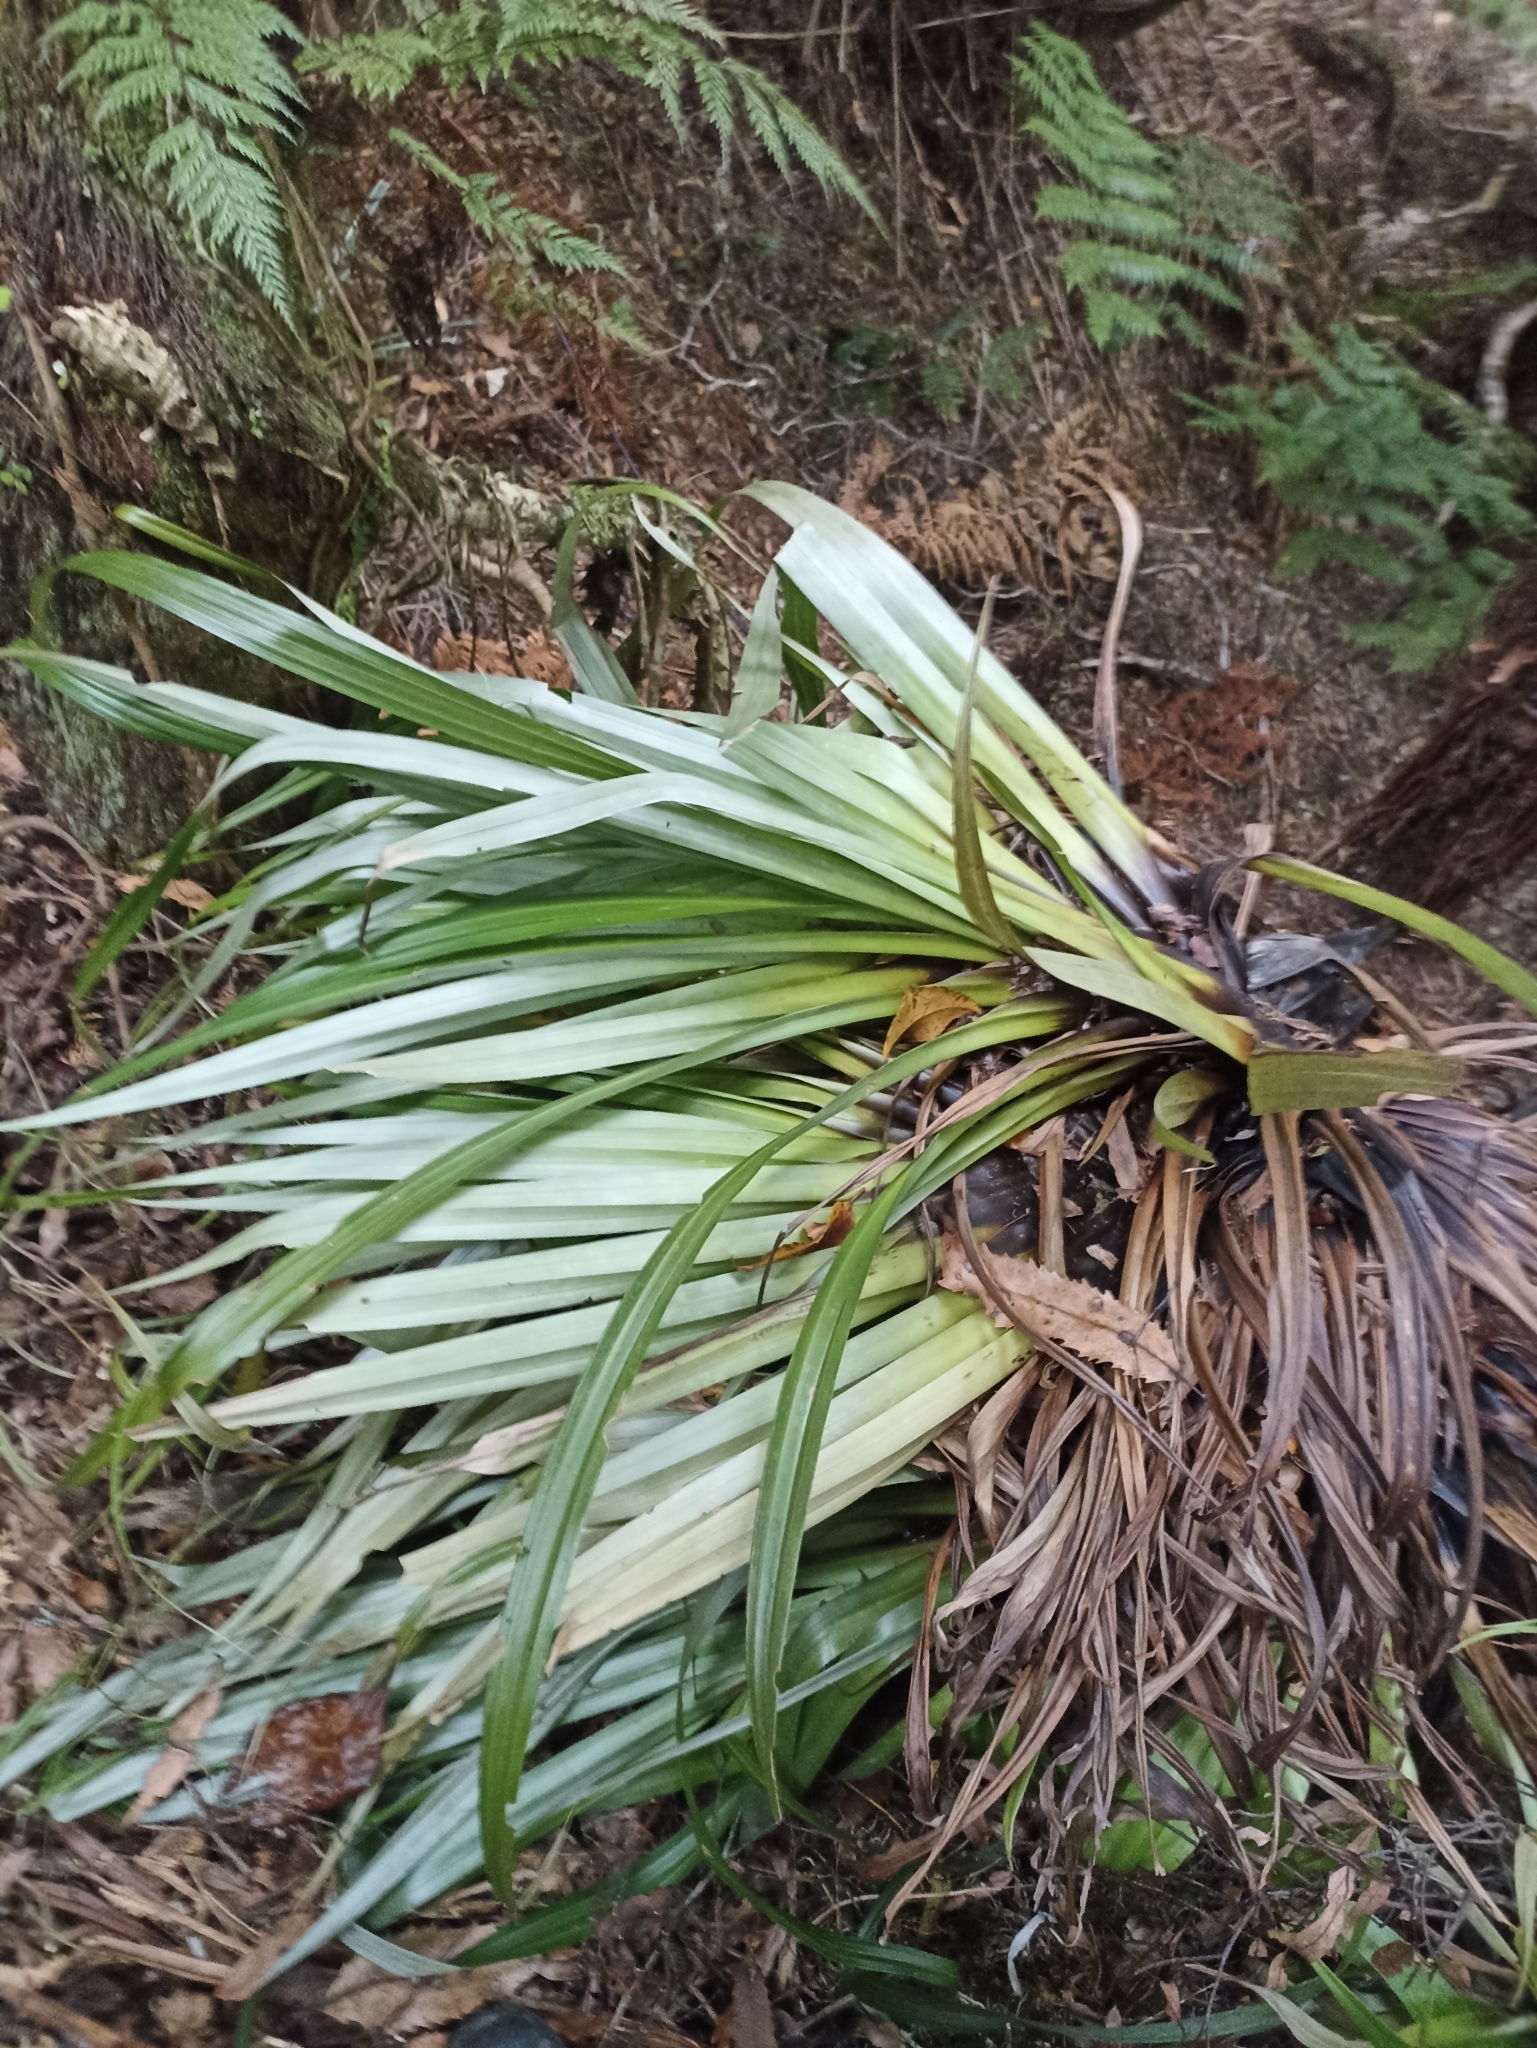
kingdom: Plantae
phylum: Tracheophyta
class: Liliopsida
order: Asparagales
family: Asteliaceae
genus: Astelia
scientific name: Astelia hastata
